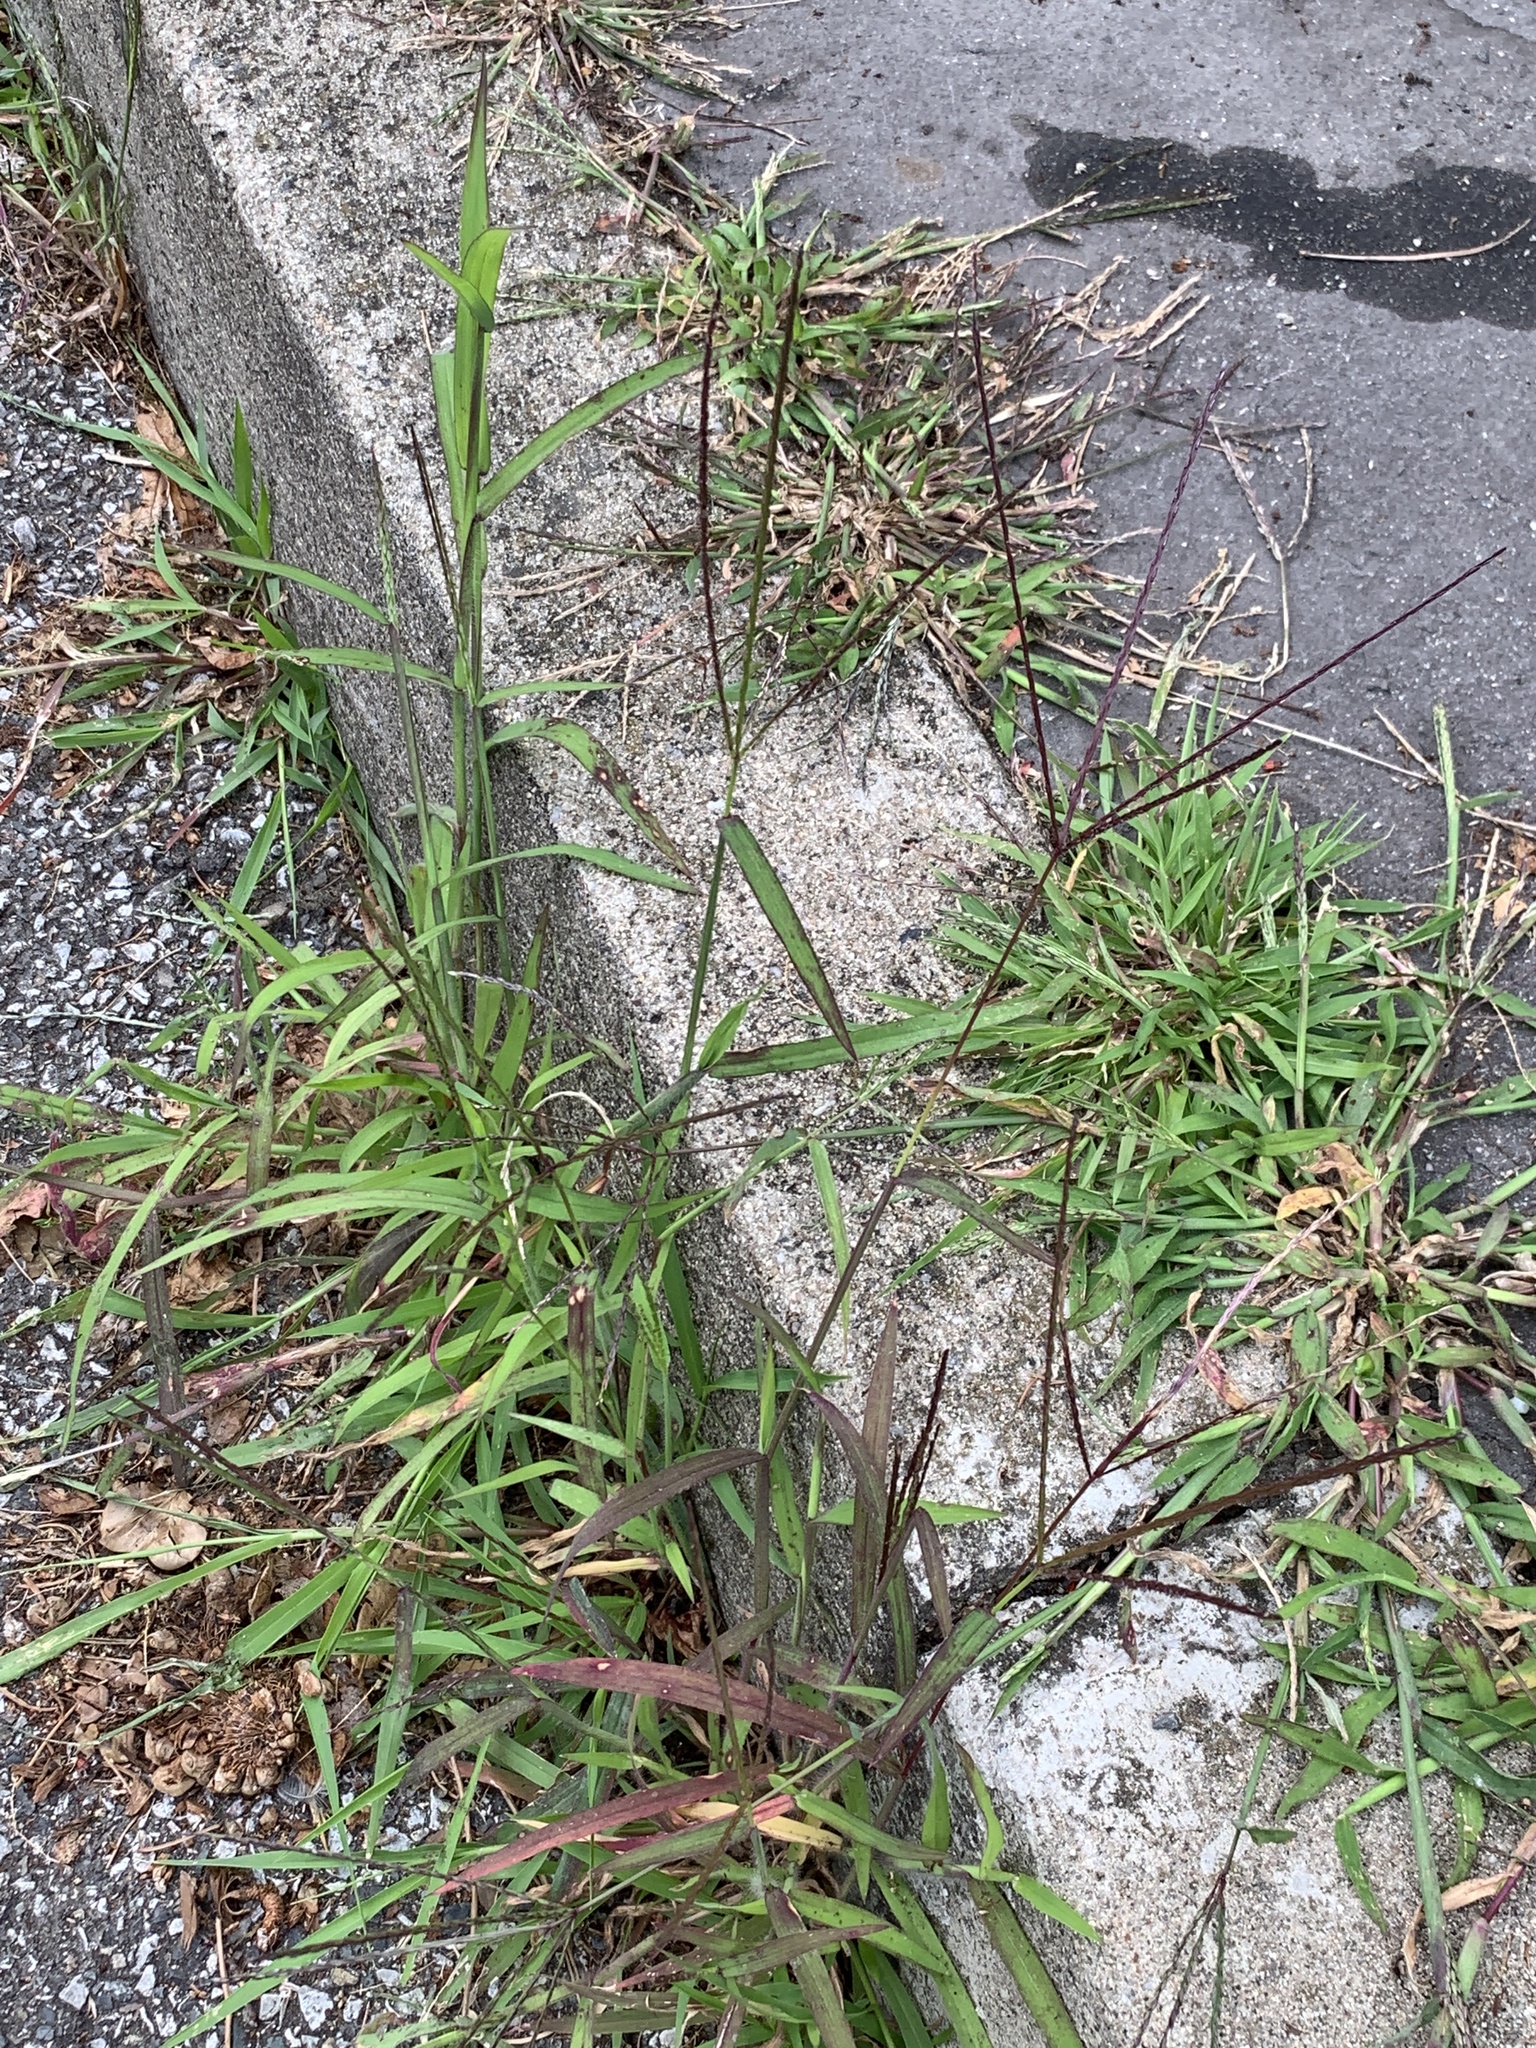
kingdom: Plantae
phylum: Tracheophyta
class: Liliopsida
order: Poales
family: Poaceae
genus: Digitaria
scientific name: Digitaria sanguinalis
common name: Hairy crabgrass
